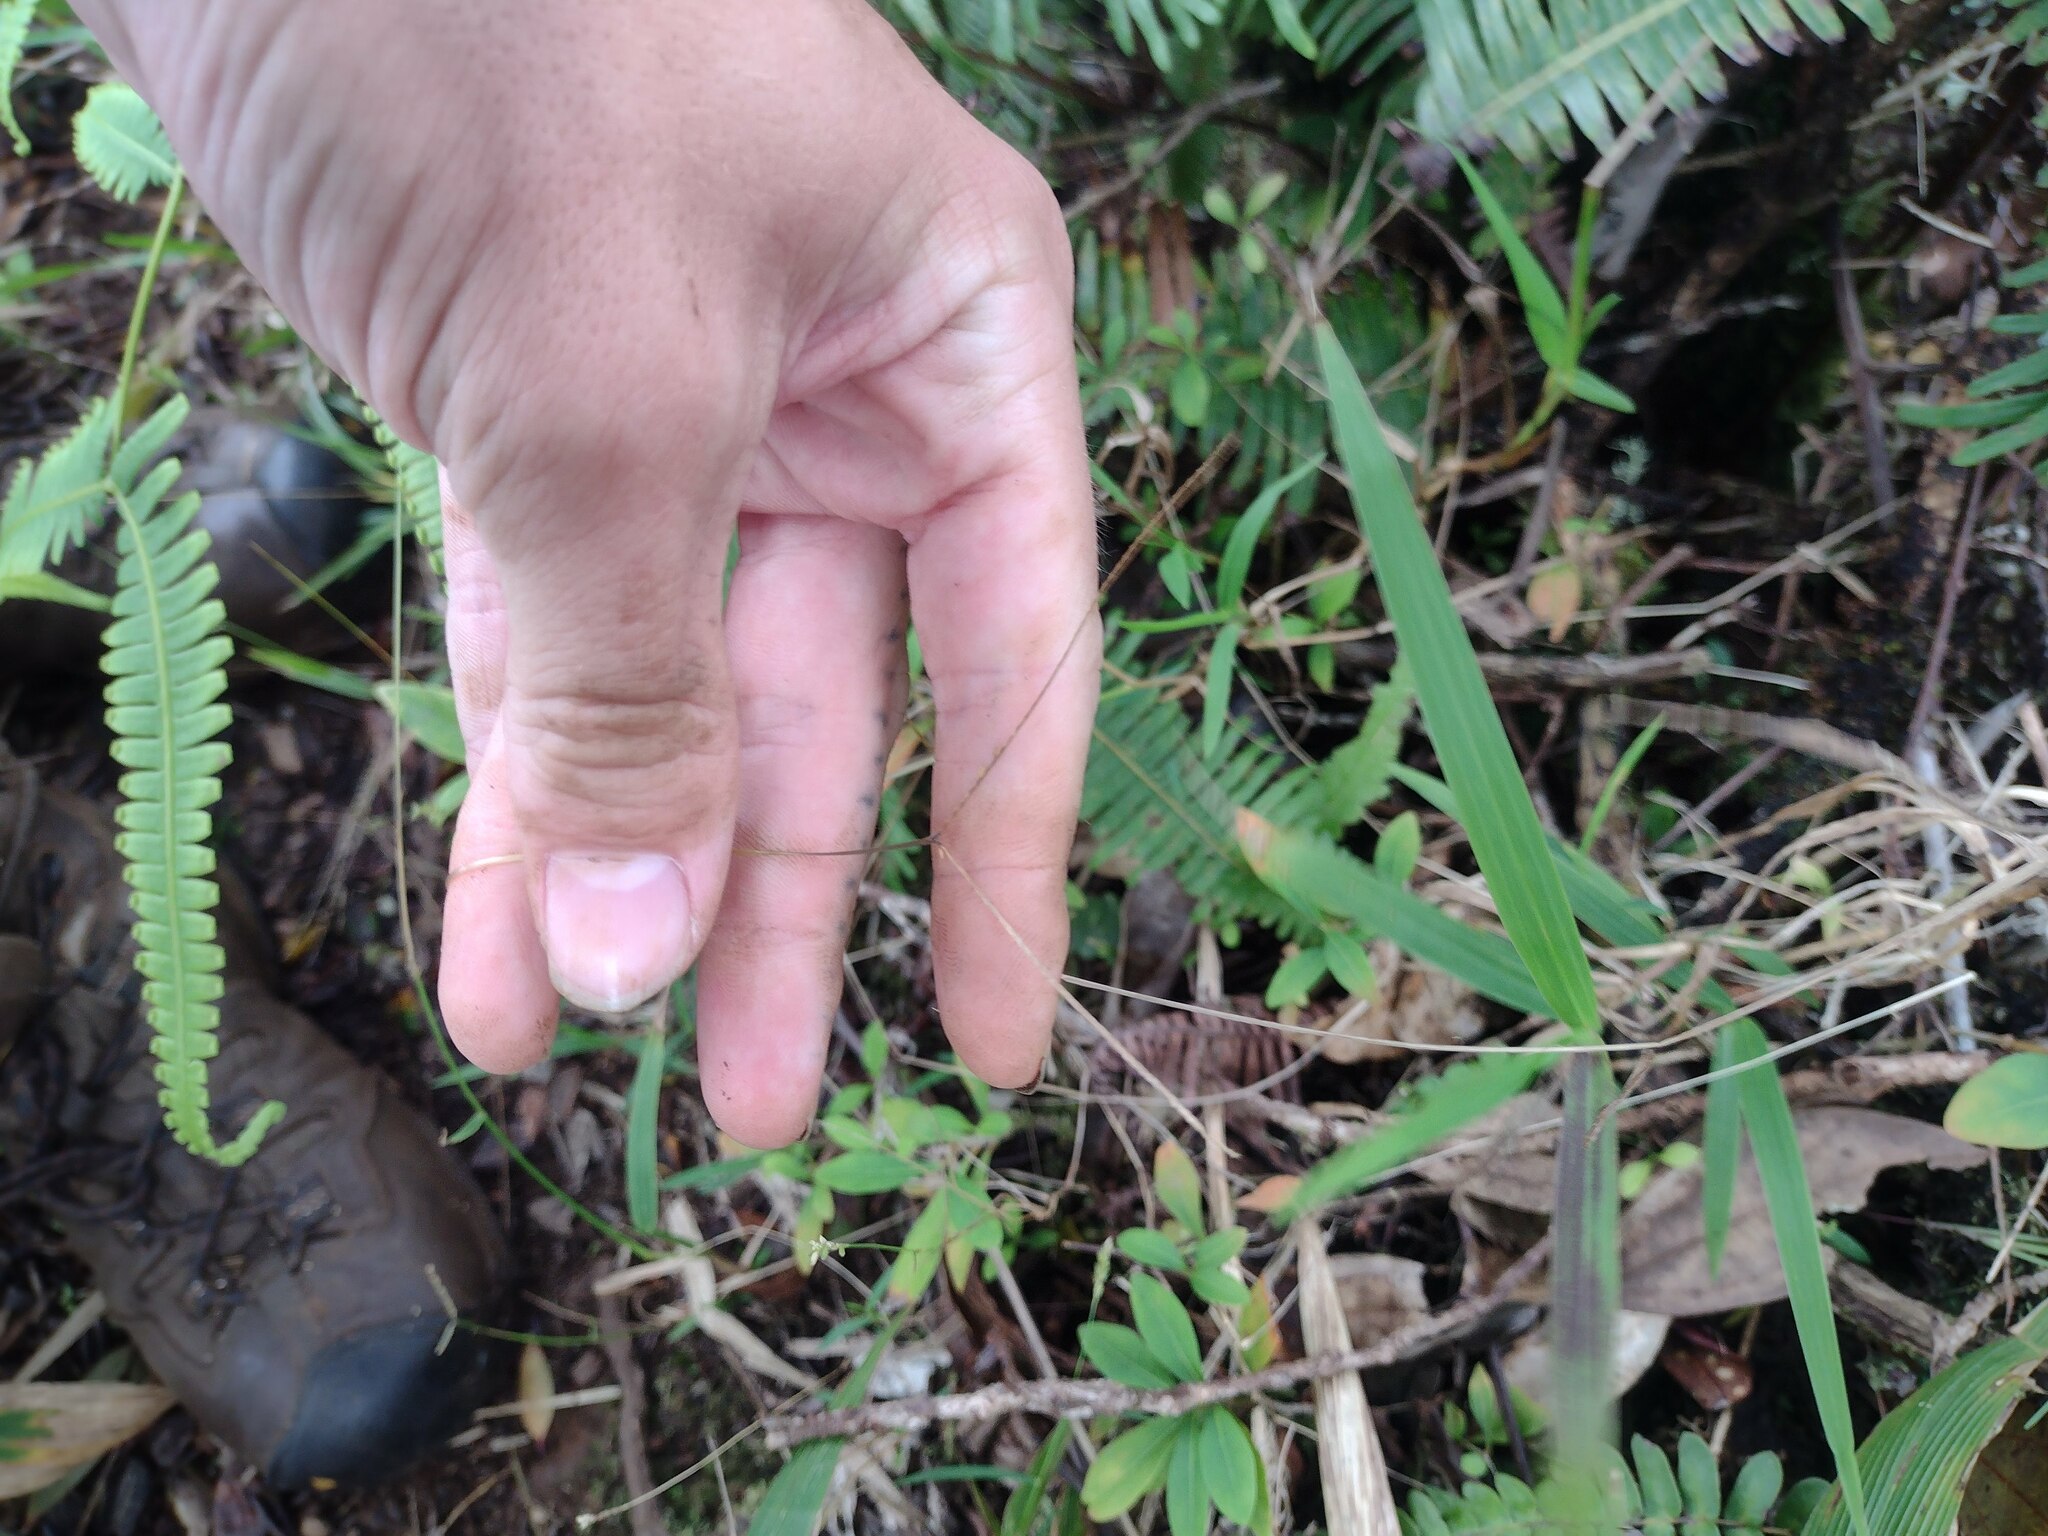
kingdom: Plantae
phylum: Tracheophyta
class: Liliopsida
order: Poales
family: Poaceae
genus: Paspalum
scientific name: Paspalum conjugatum
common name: Hilograss
